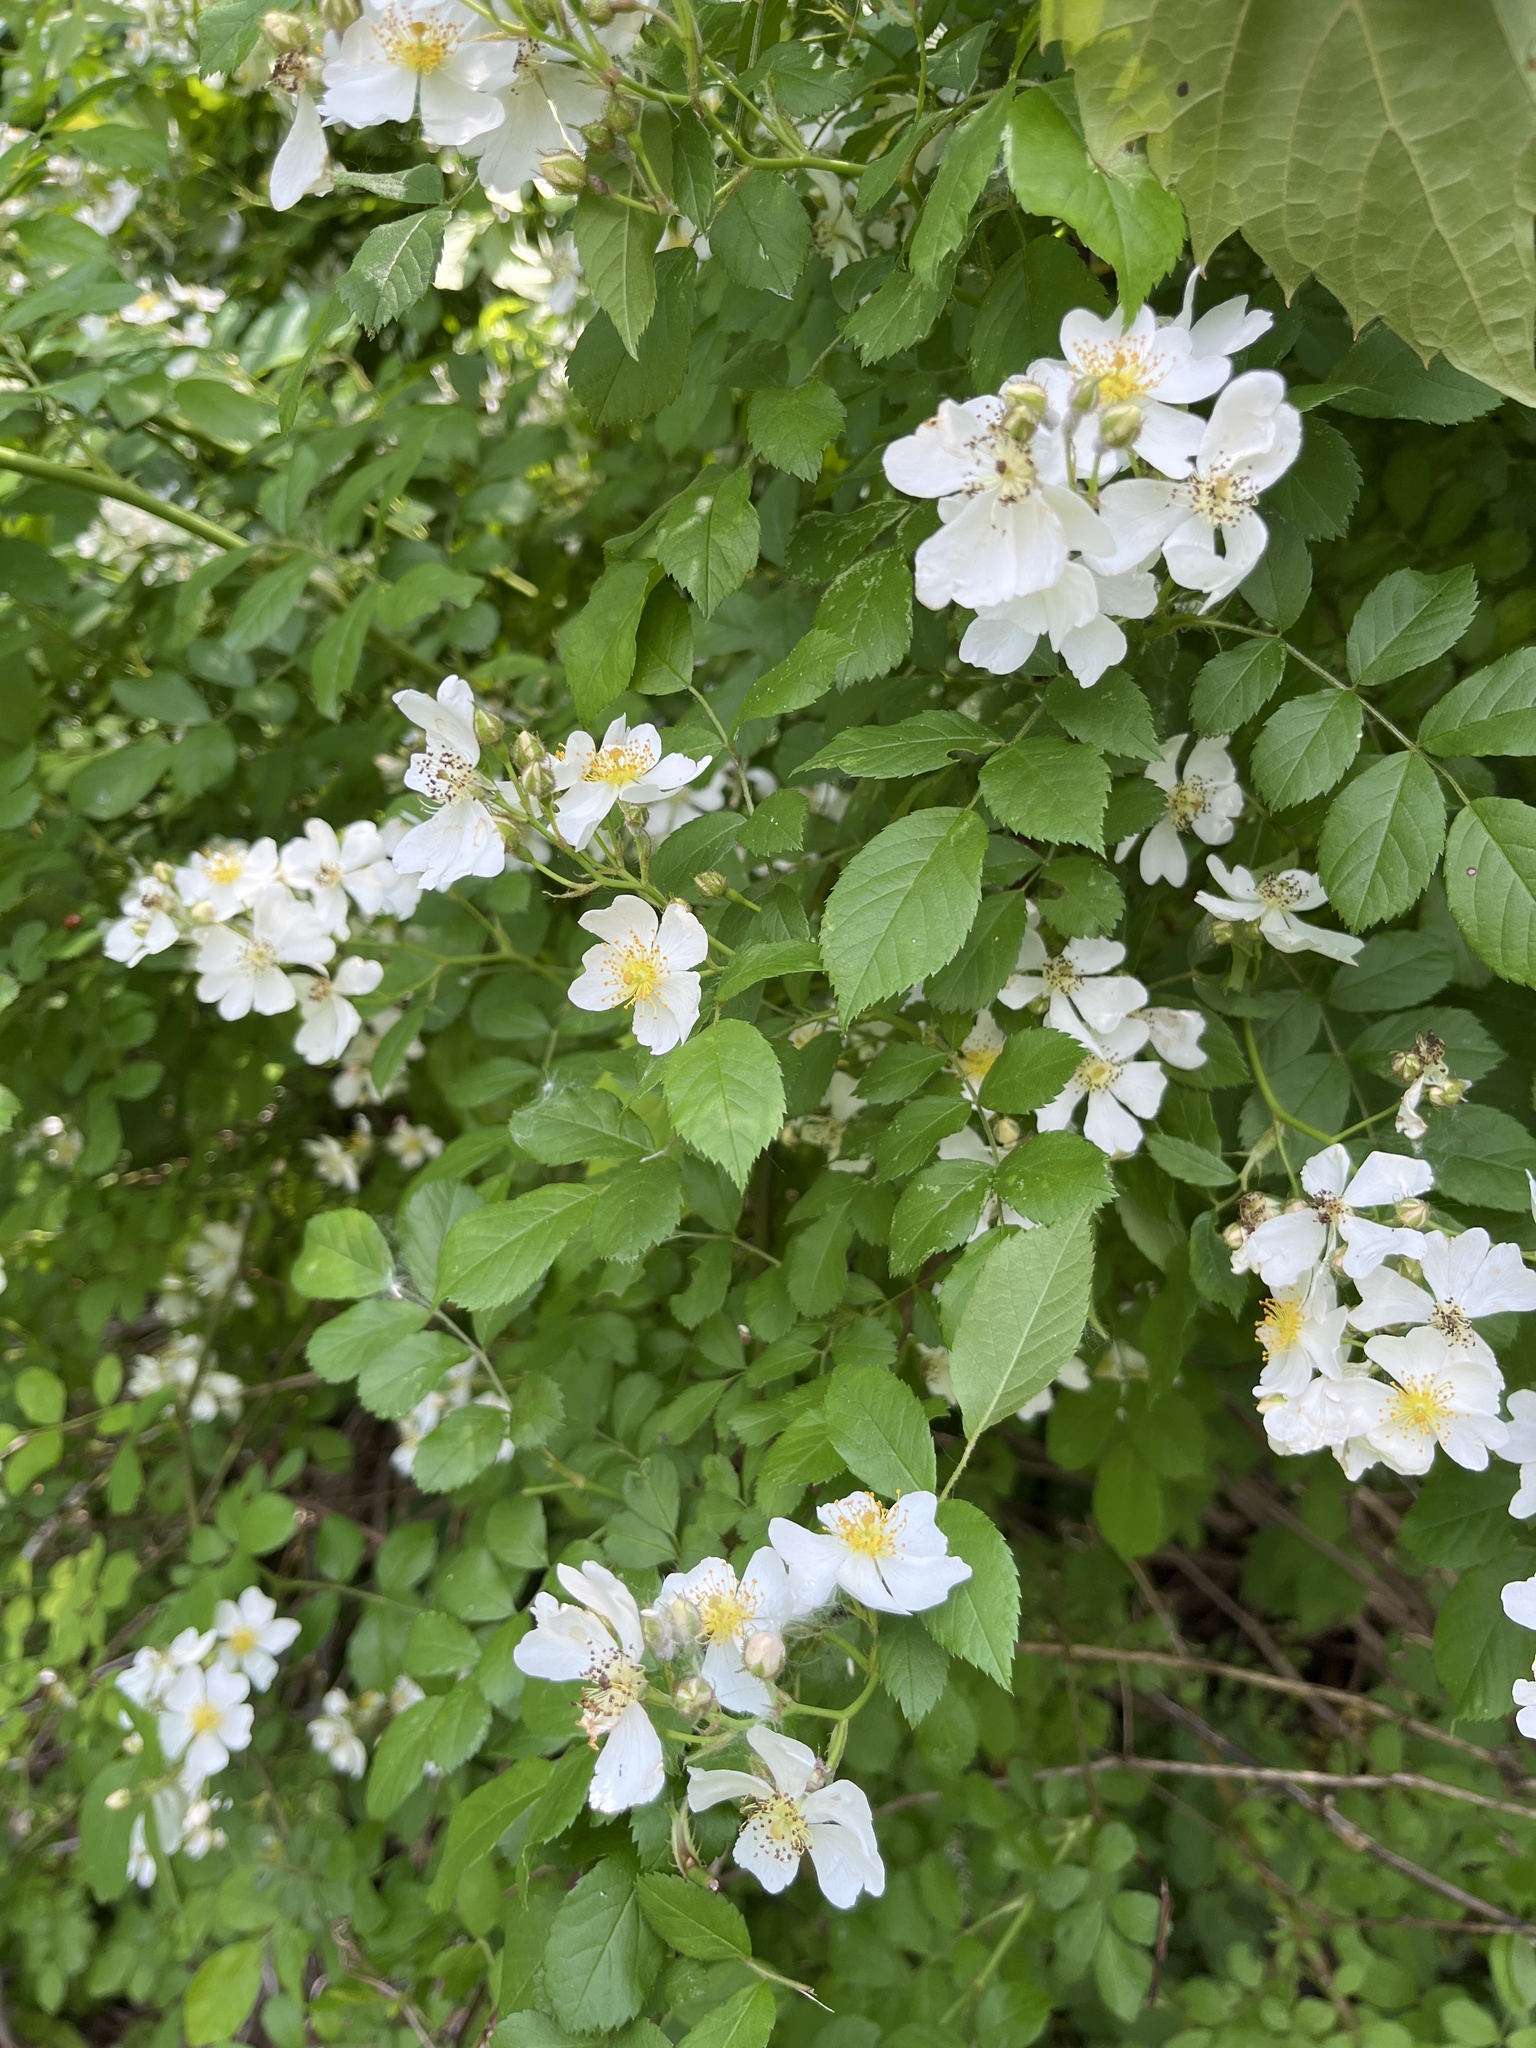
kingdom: Plantae
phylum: Tracheophyta
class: Magnoliopsida
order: Rosales
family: Rosaceae
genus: Rosa
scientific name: Rosa multiflora
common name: Multiflora rose
